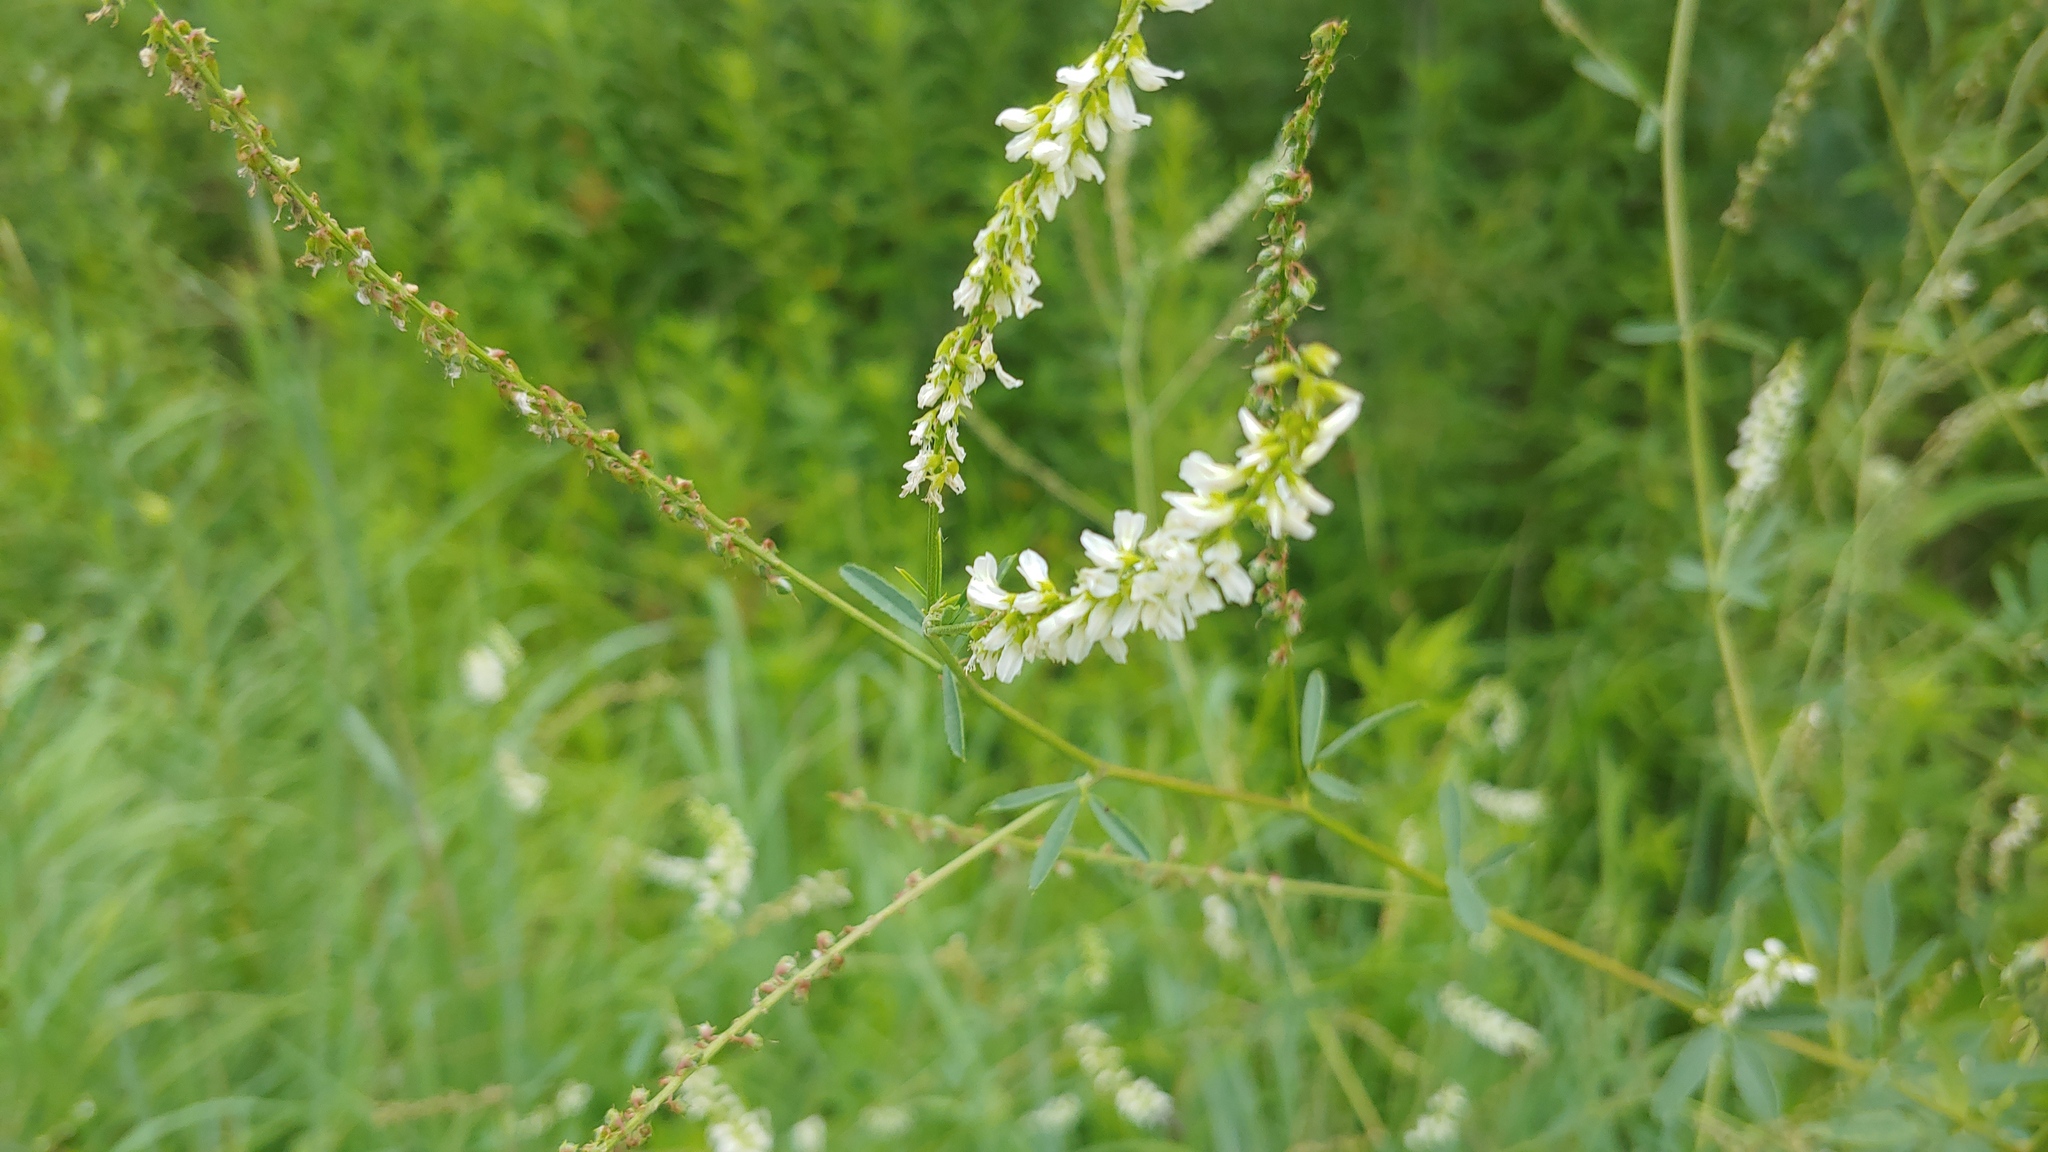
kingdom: Plantae
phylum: Tracheophyta
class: Magnoliopsida
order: Fabales
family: Fabaceae
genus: Melilotus
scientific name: Melilotus albus
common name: White melilot
